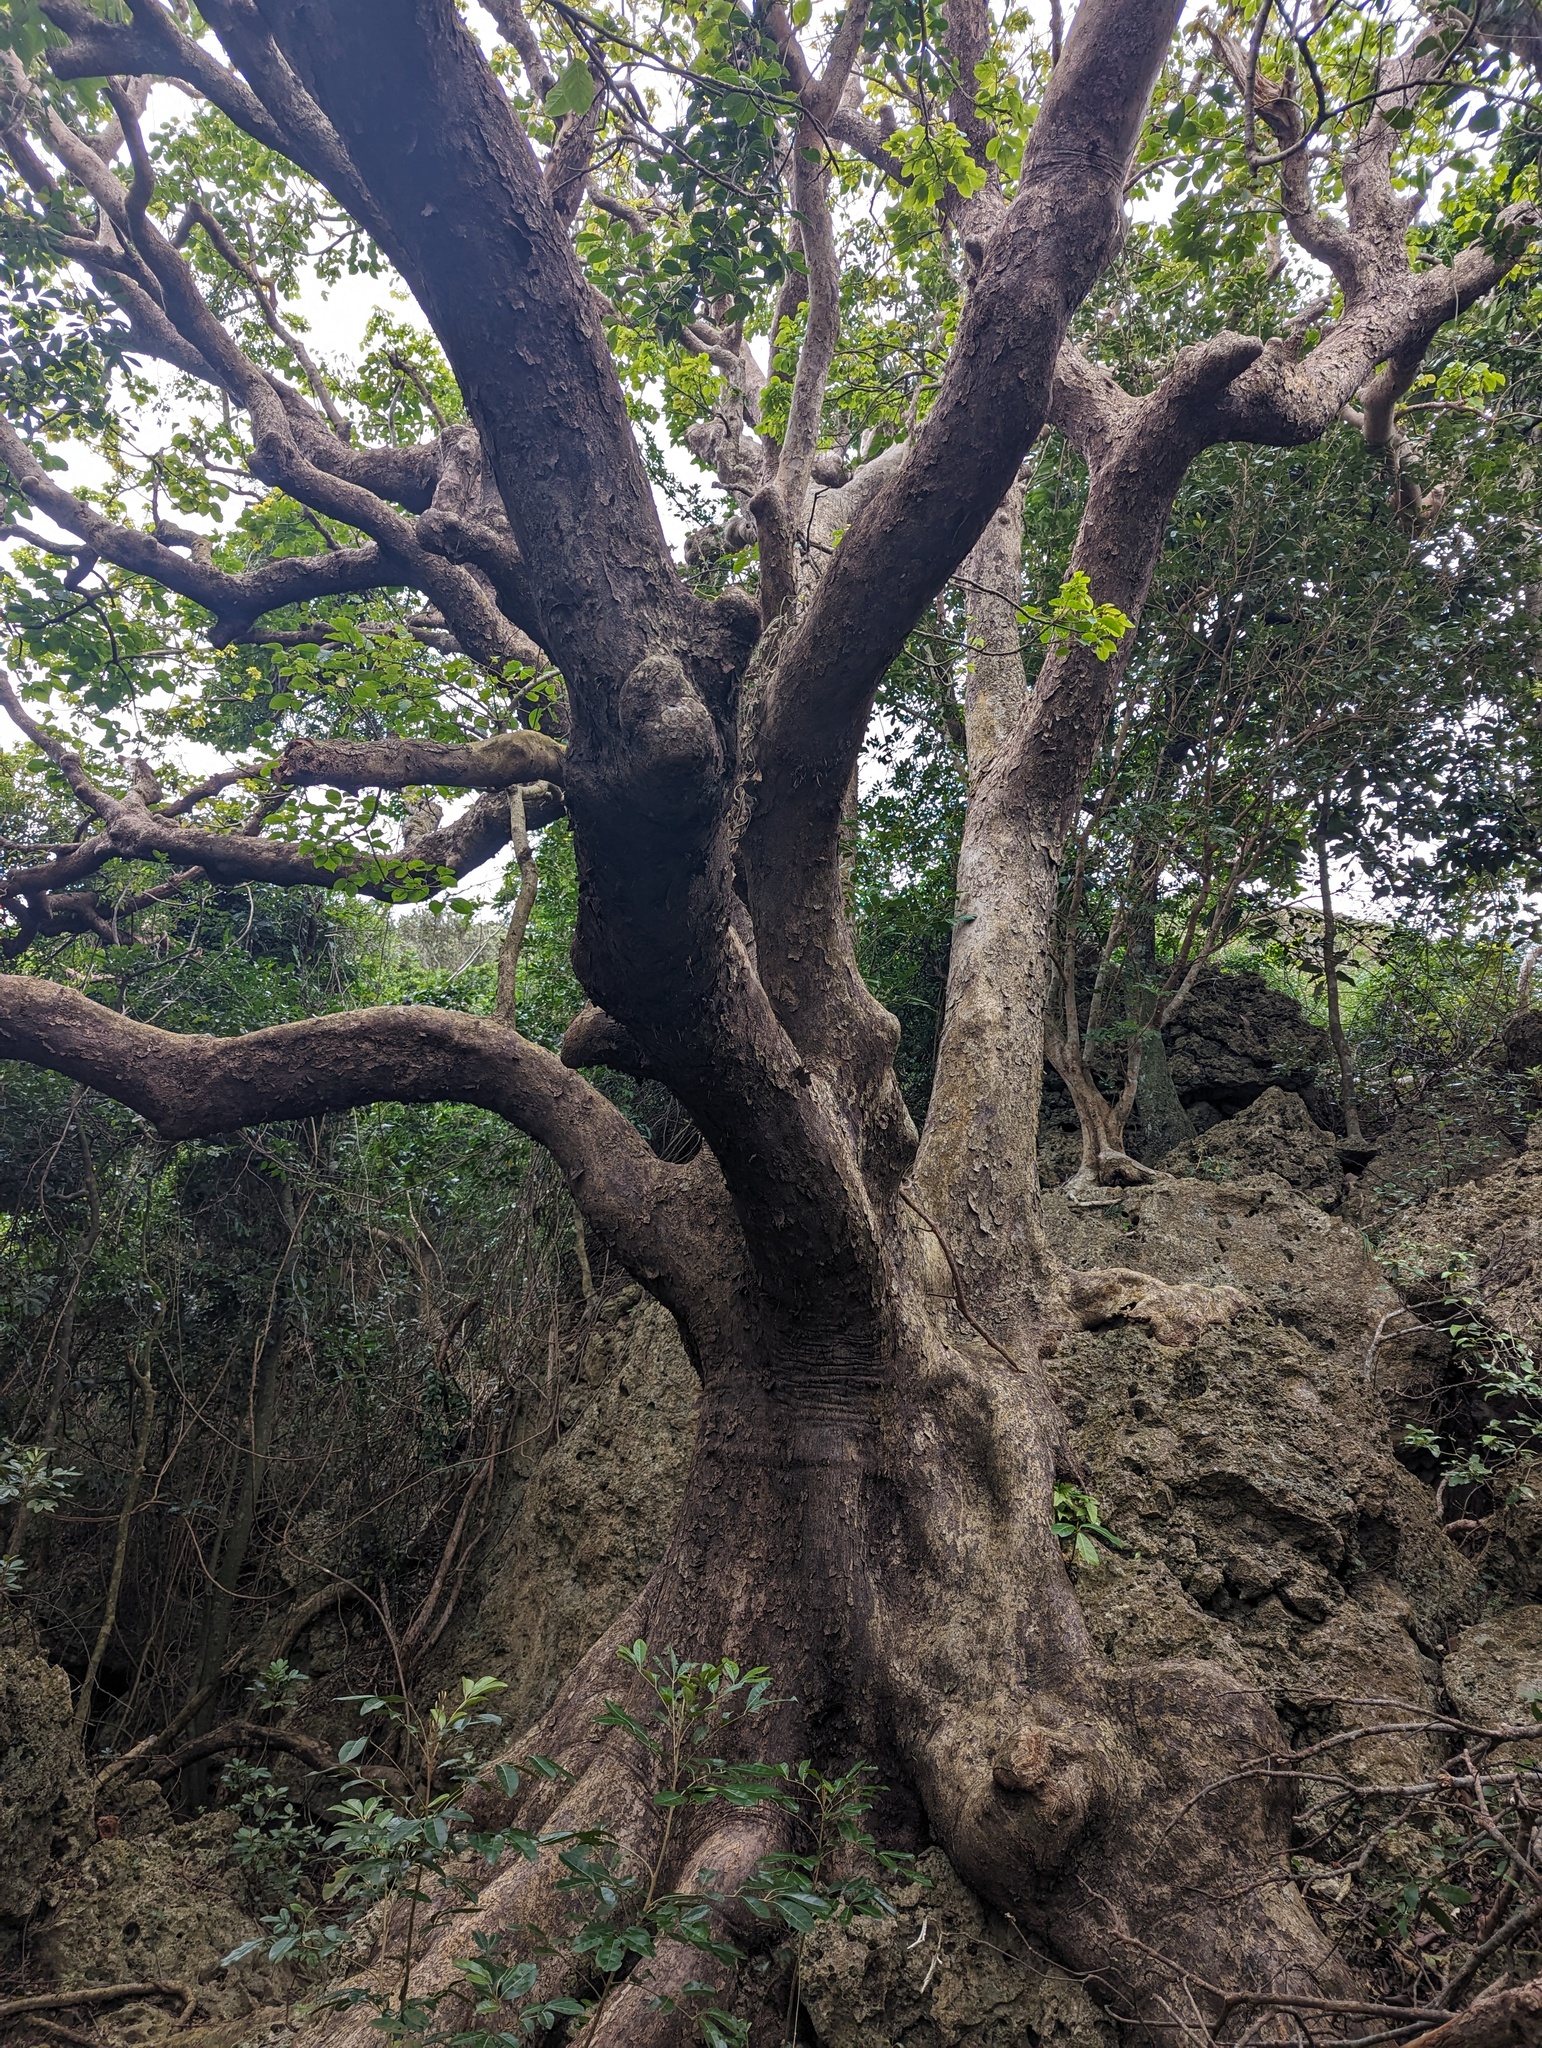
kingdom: Plantae
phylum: Tracheophyta
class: Magnoliopsida
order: Malpighiales
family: Phyllanthaceae
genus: Bischofia
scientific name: Bischofia javanica
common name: Javanese bishopwood
